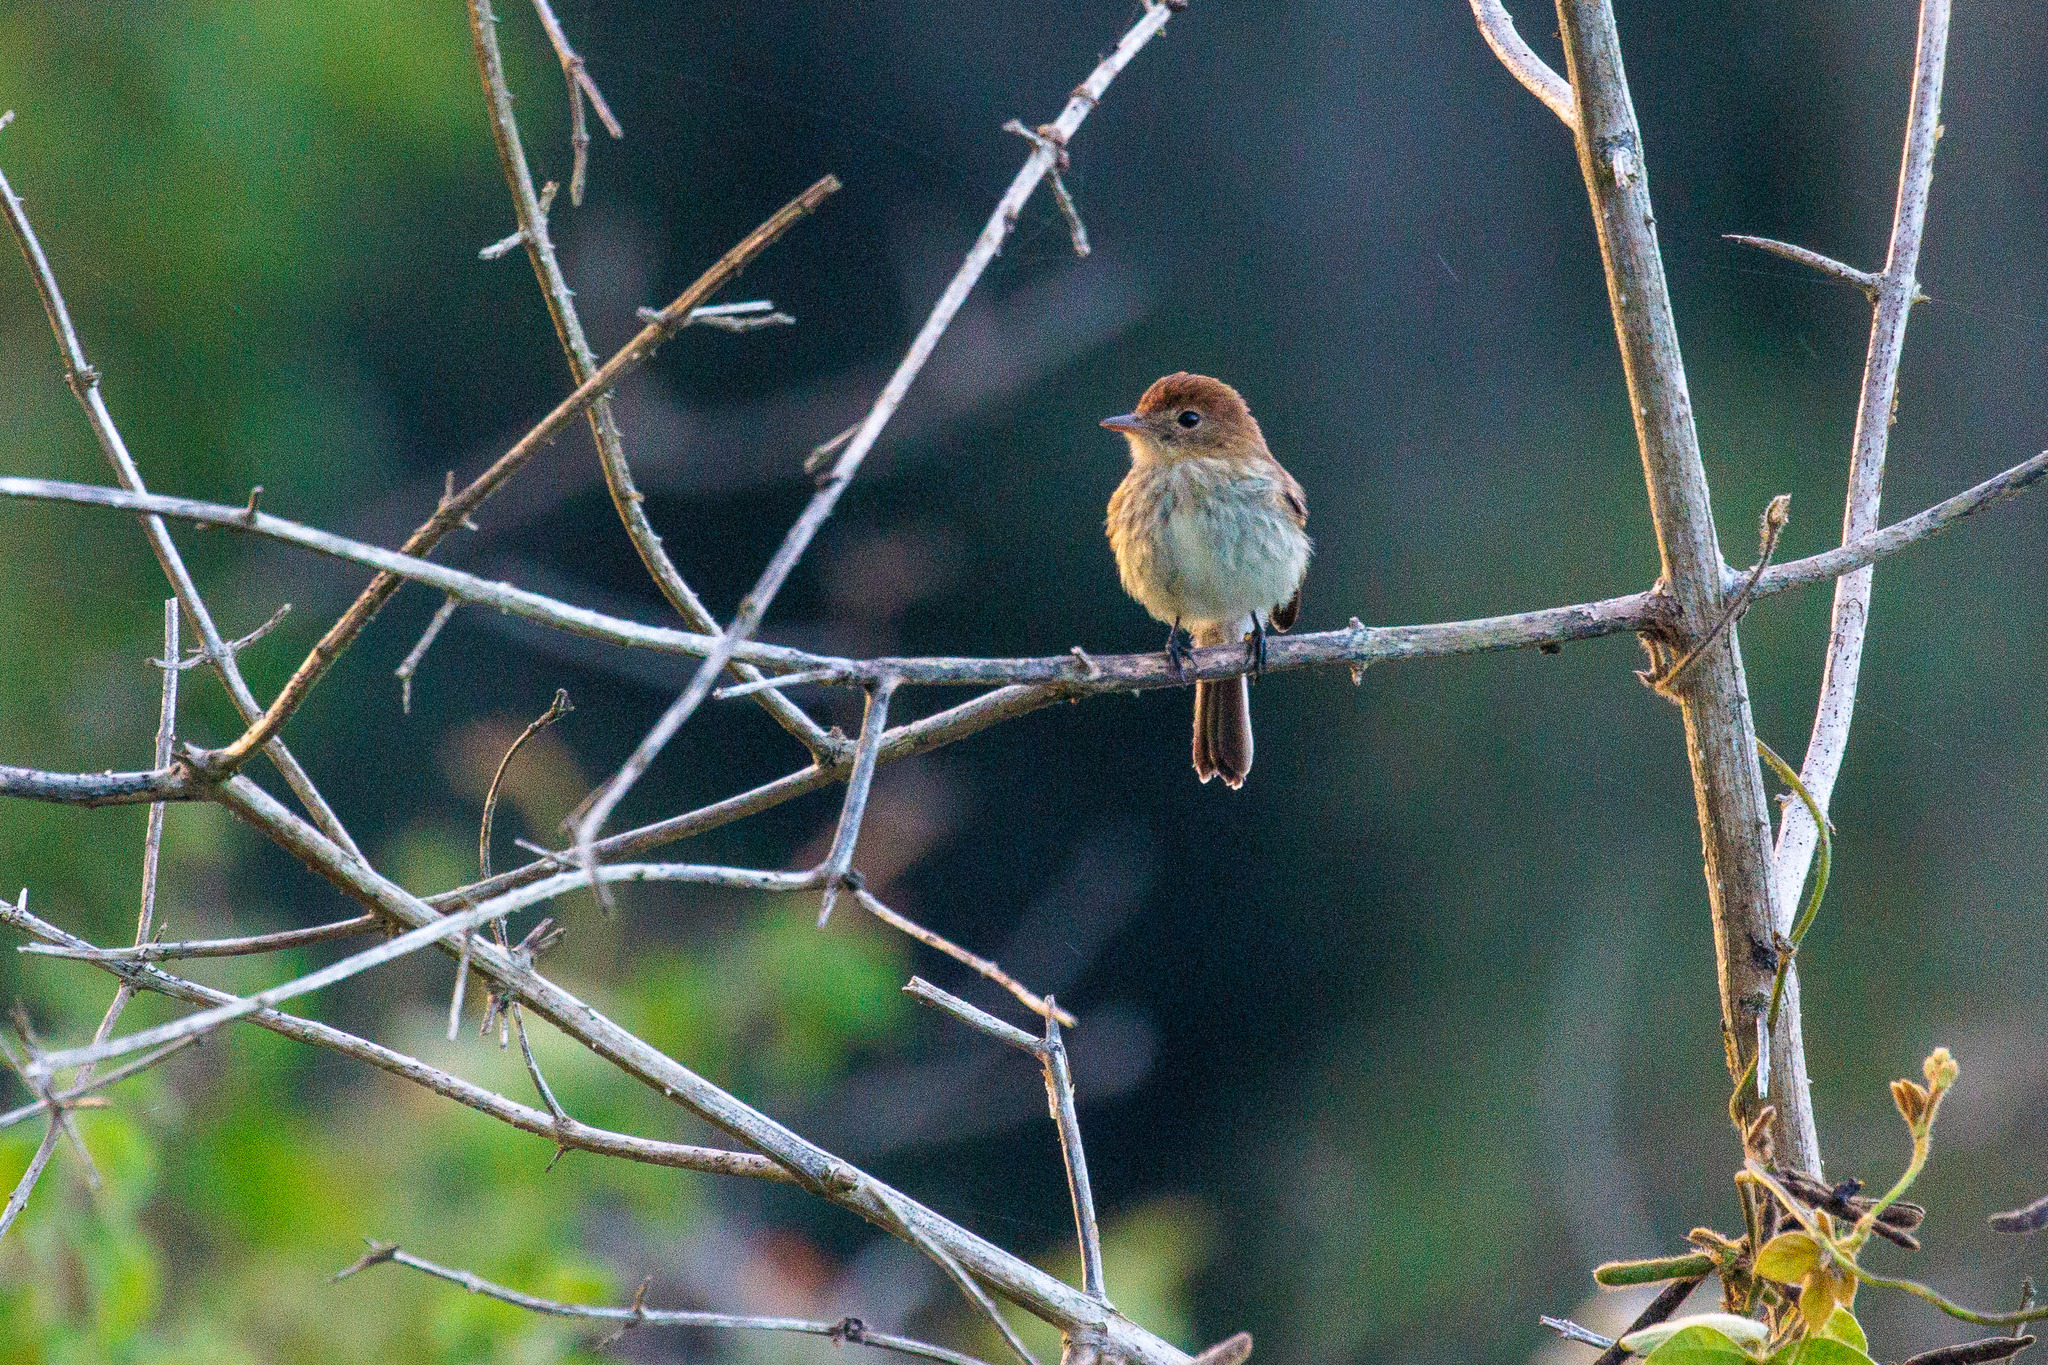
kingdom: Animalia
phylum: Chordata
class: Aves
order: Passeriformes
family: Tyrannidae
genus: Myiophobus
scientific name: Myiophobus fasciatus
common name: Bran-colored flycatcher
